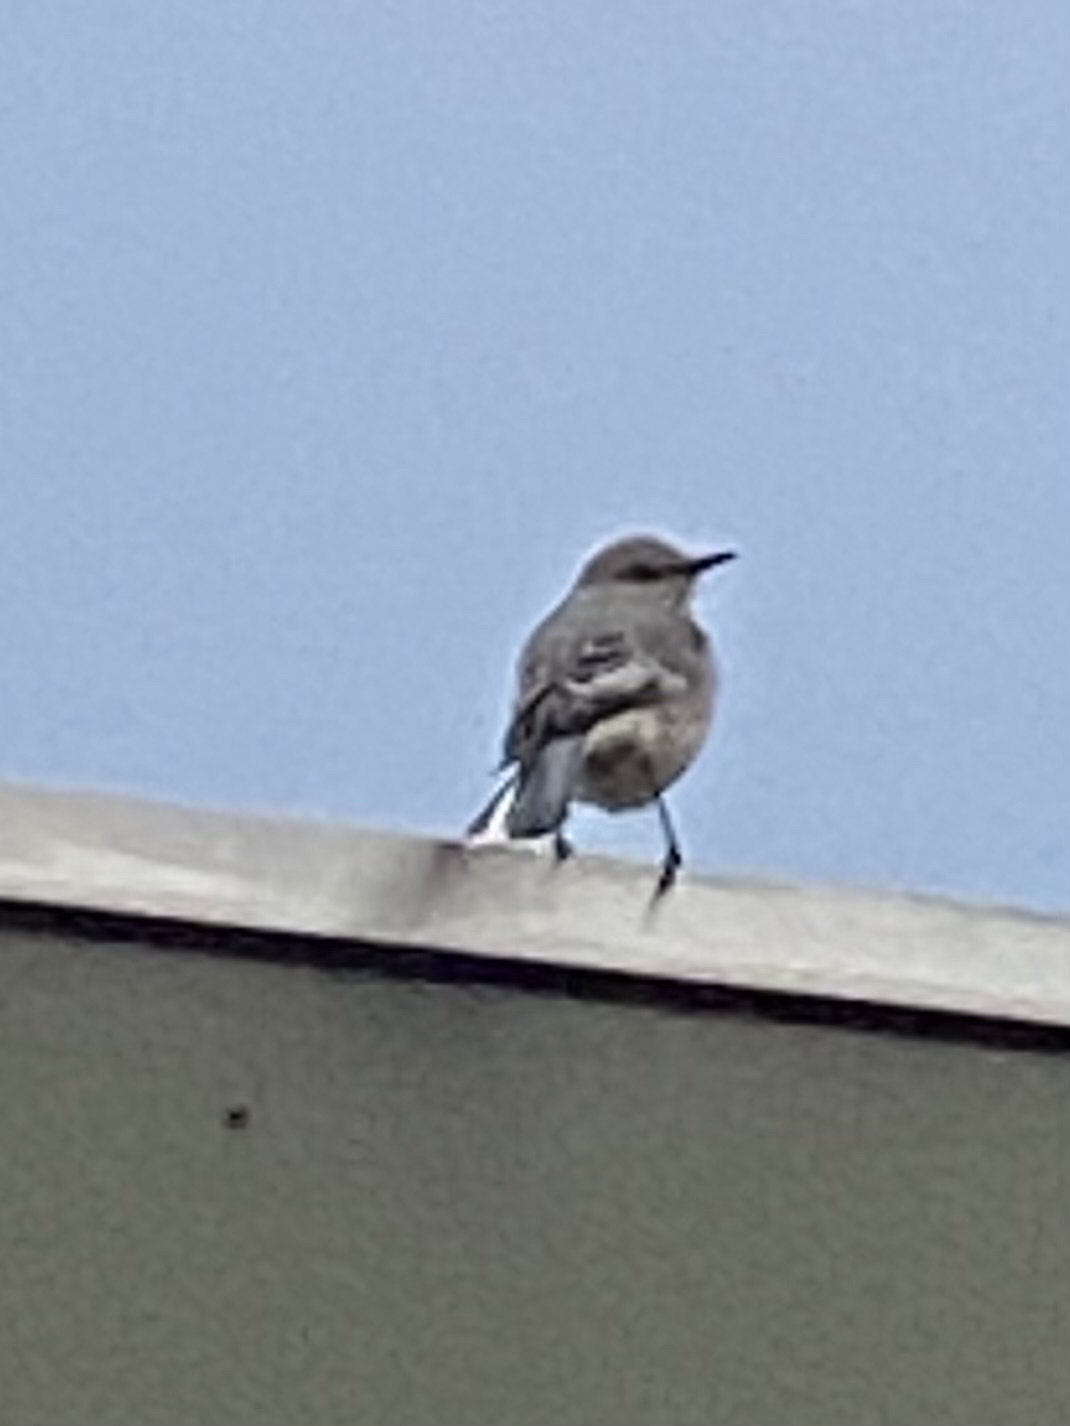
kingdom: Animalia
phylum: Chordata
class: Aves
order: Passeriformes
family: Mimidae
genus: Mimus
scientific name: Mimus polyglottos
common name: Northern mockingbird
